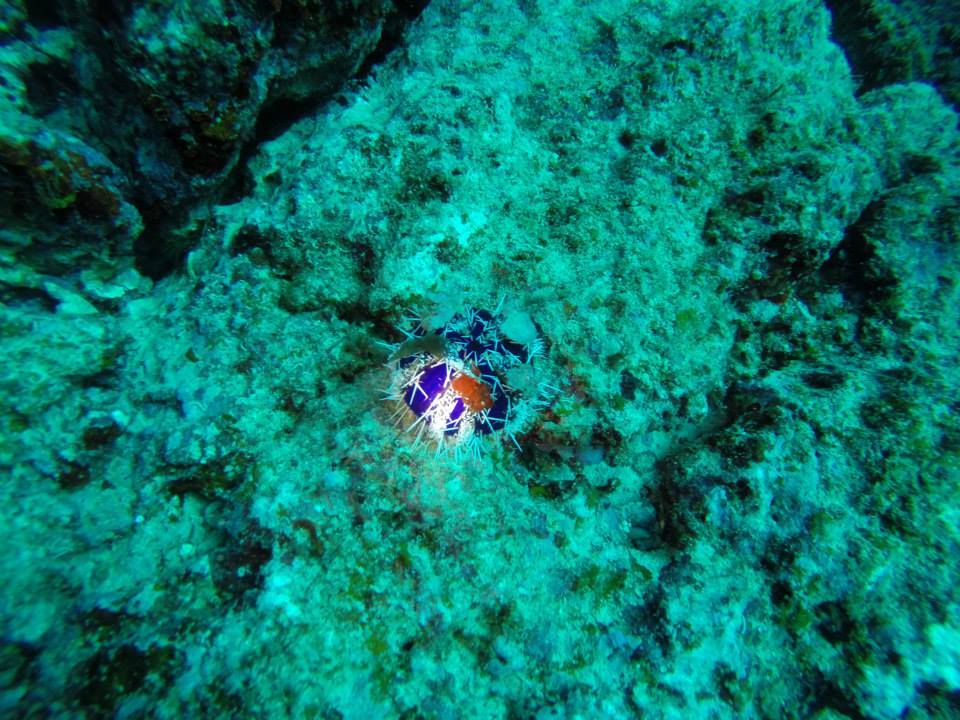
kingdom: Animalia
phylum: Echinodermata
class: Echinoidea
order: Camarodonta
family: Toxopneustidae
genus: Tripneustes
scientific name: Tripneustes gratilla
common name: Bischofsmützenseeigel
